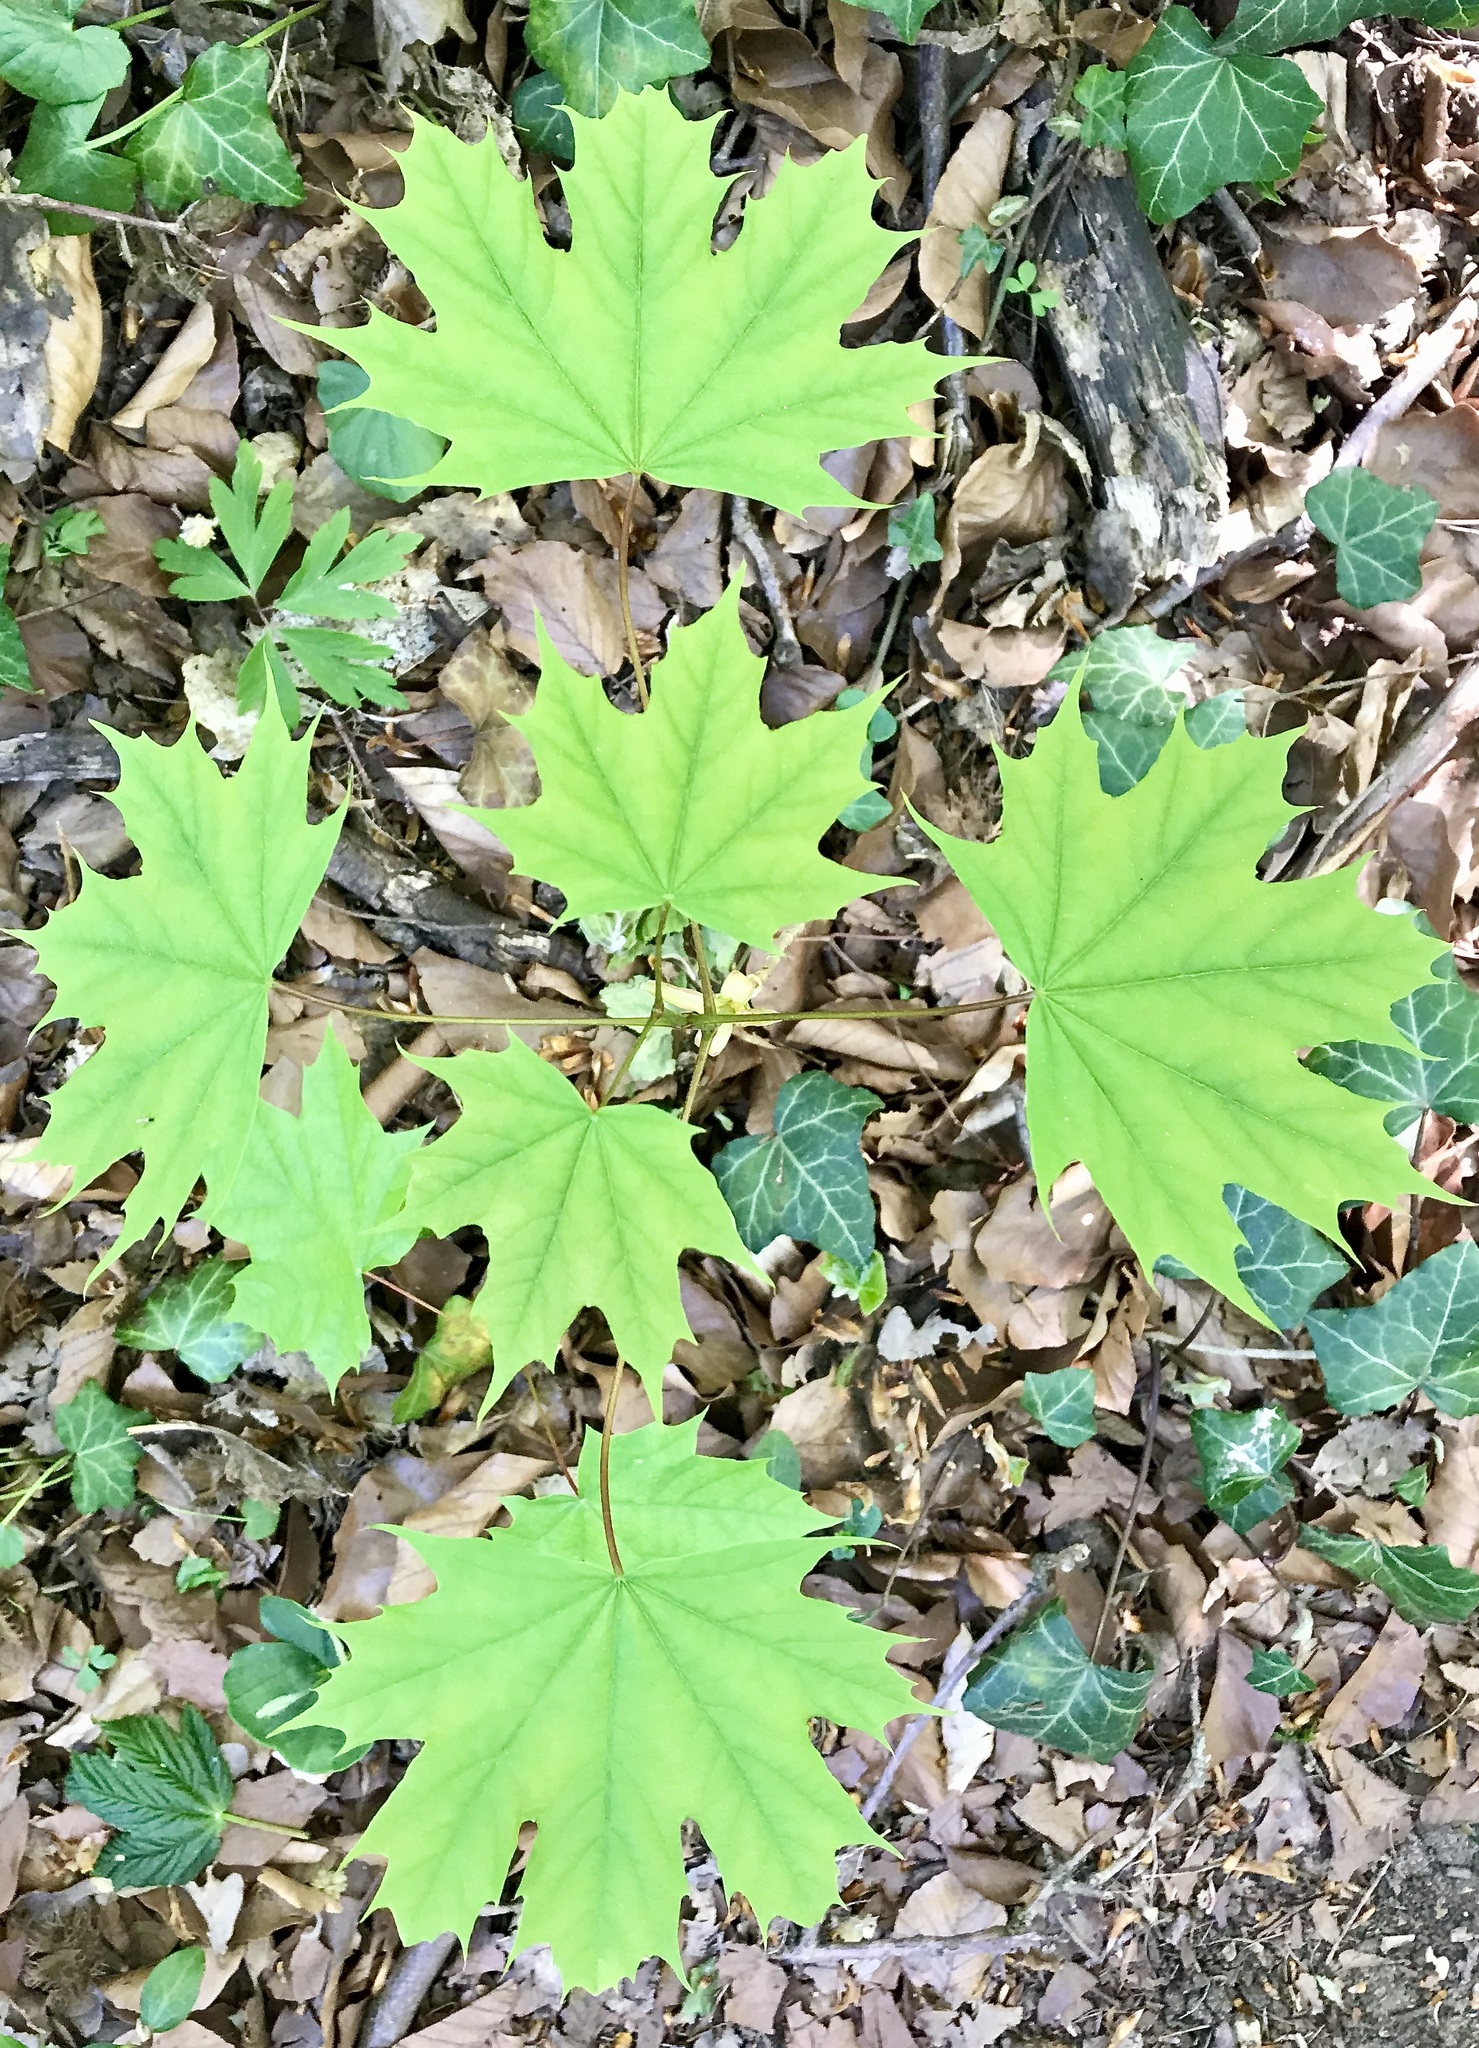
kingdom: Plantae
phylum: Tracheophyta
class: Magnoliopsida
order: Sapindales
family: Sapindaceae
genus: Acer
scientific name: Acer platanoides
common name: Norway maple
